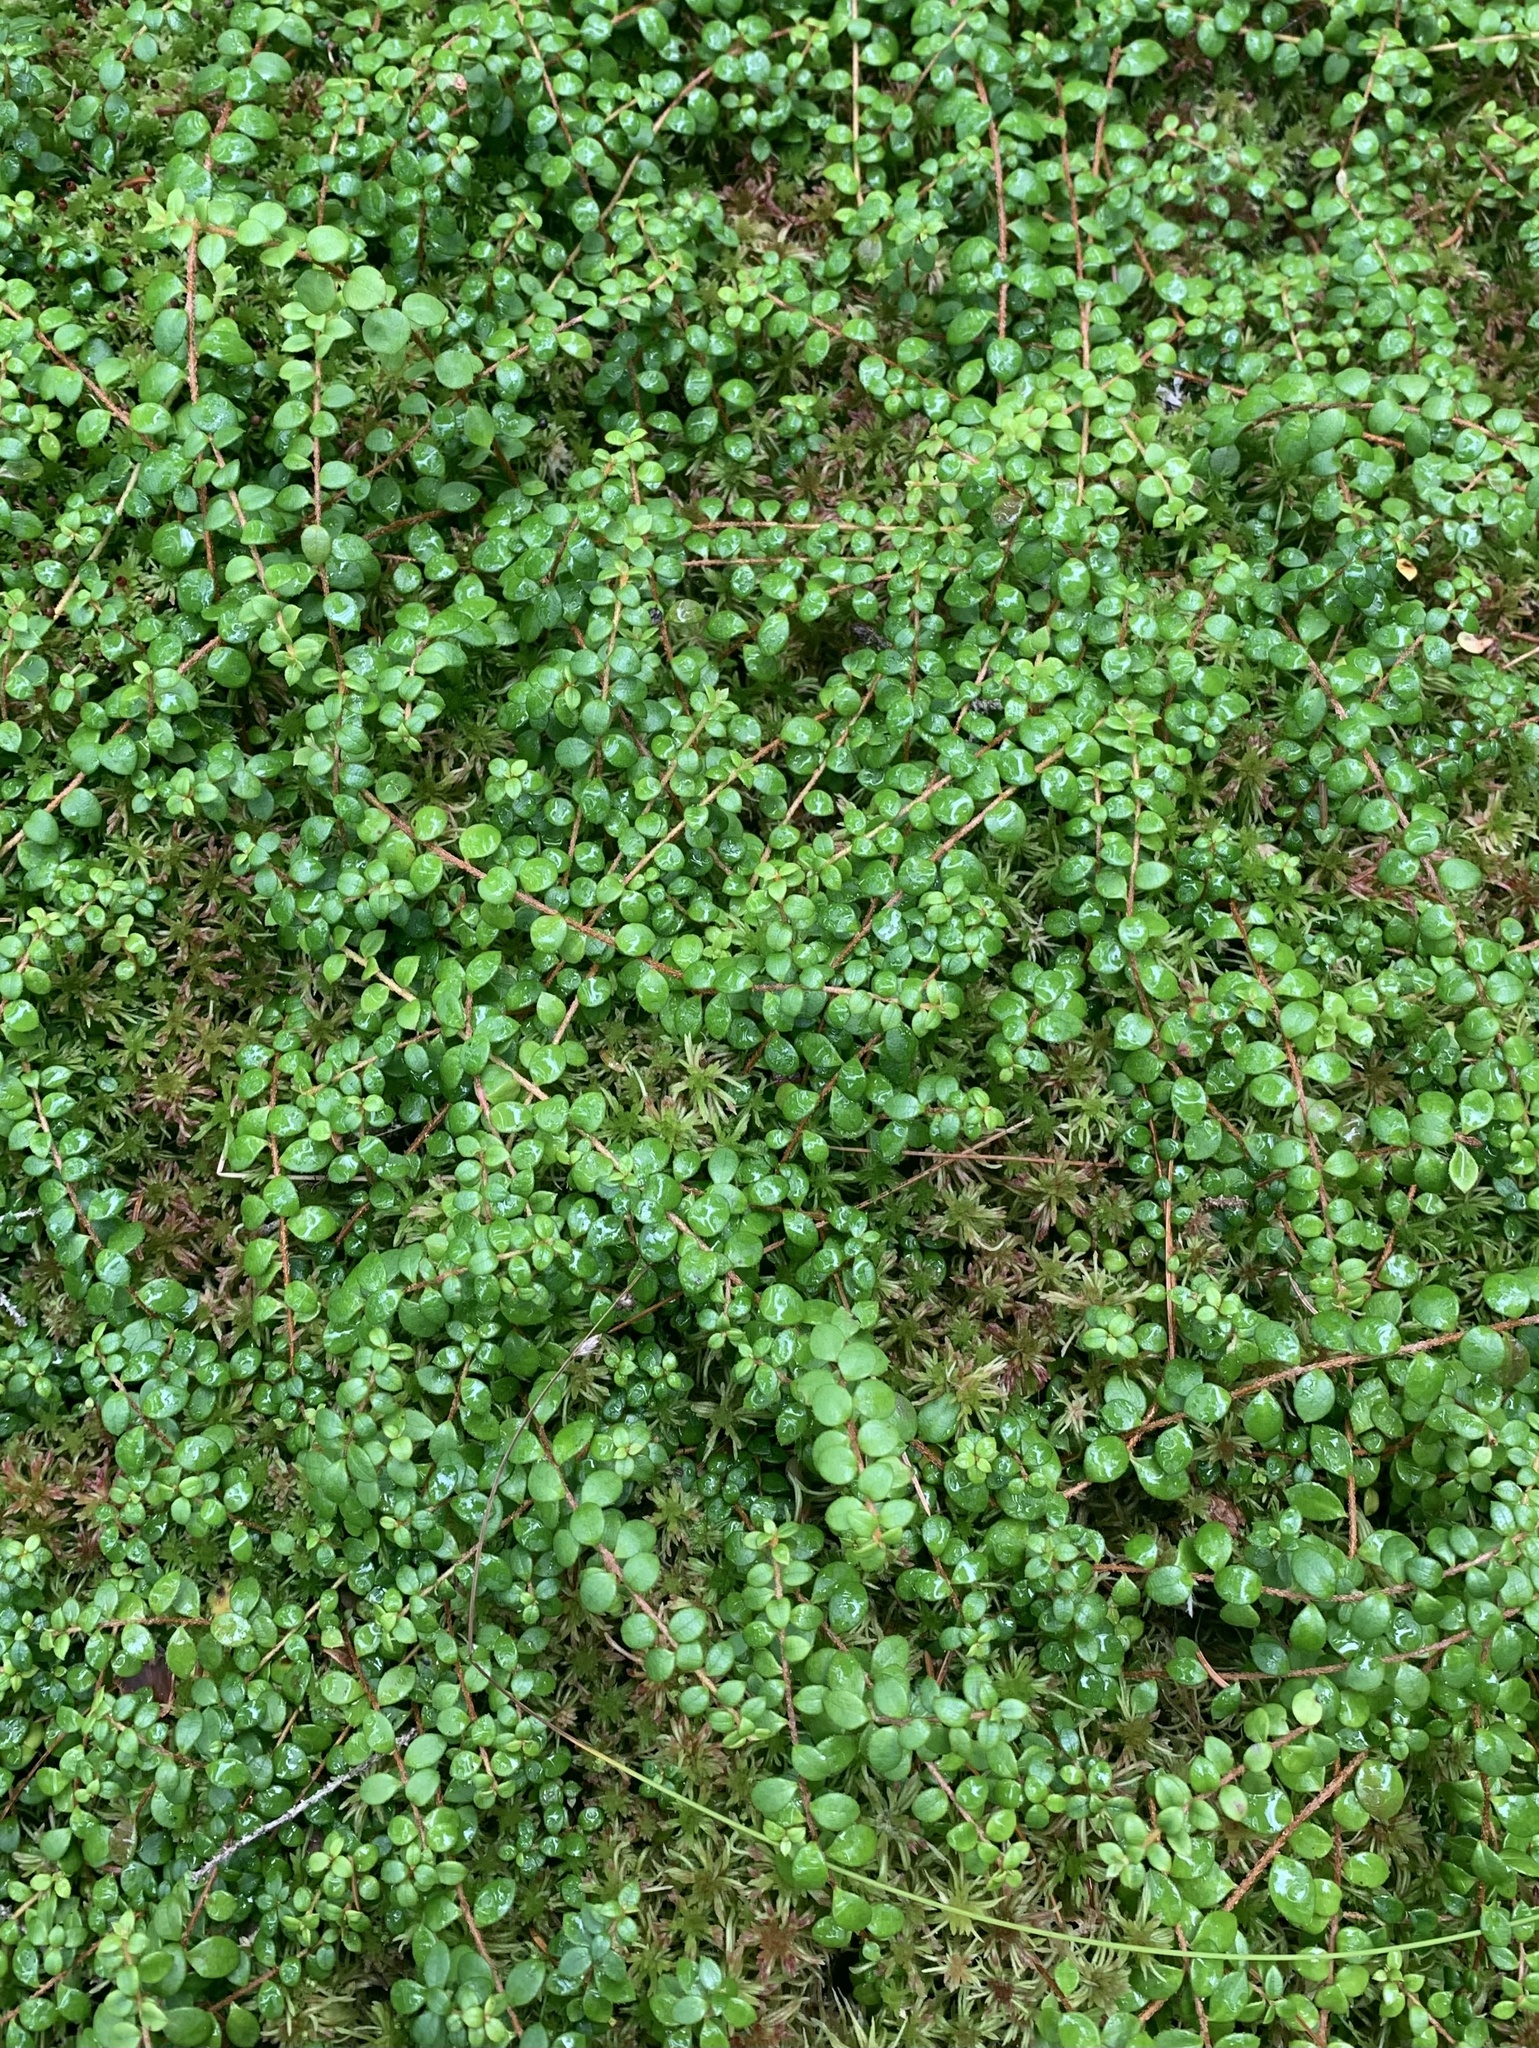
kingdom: Plantae
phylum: Tracheophyta
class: Magnoliopsida
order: Ericales
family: Ericaceae
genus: Gaultheria
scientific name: Gaultheria hispidula
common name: Cancer wintergreen
